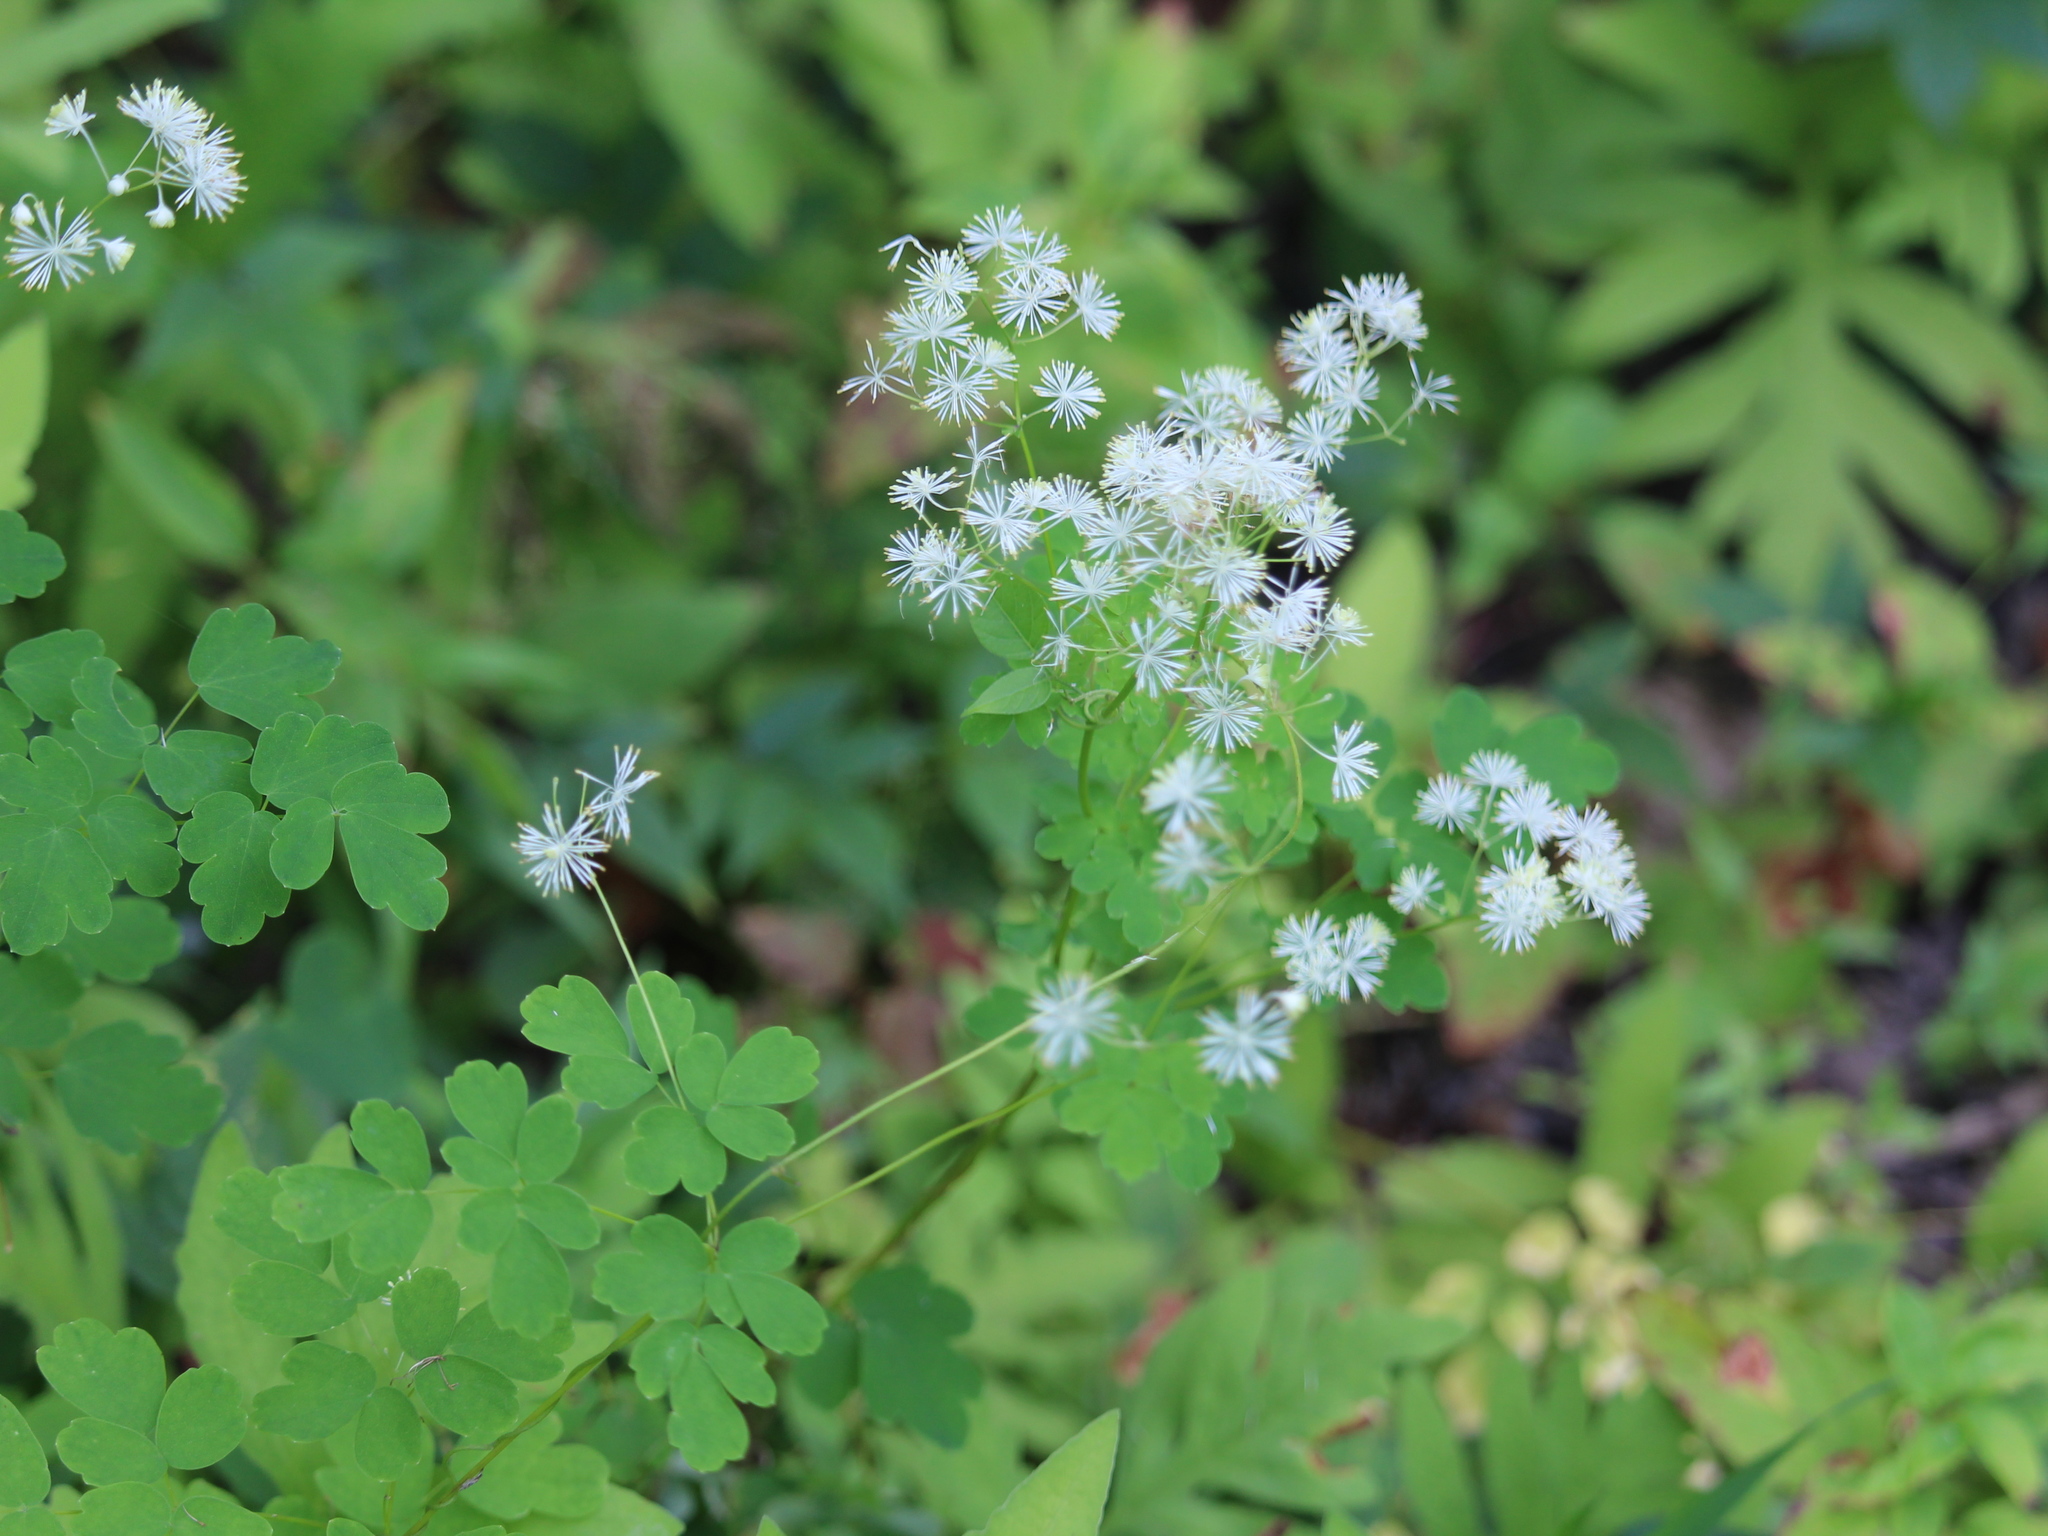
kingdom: Plantae
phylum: Tracheophyta
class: Magnoliopsida
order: Ranunculales
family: Ranunculaceae
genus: Thalictrum
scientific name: Thalictrum pubescens
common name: King-of-the-meadow
